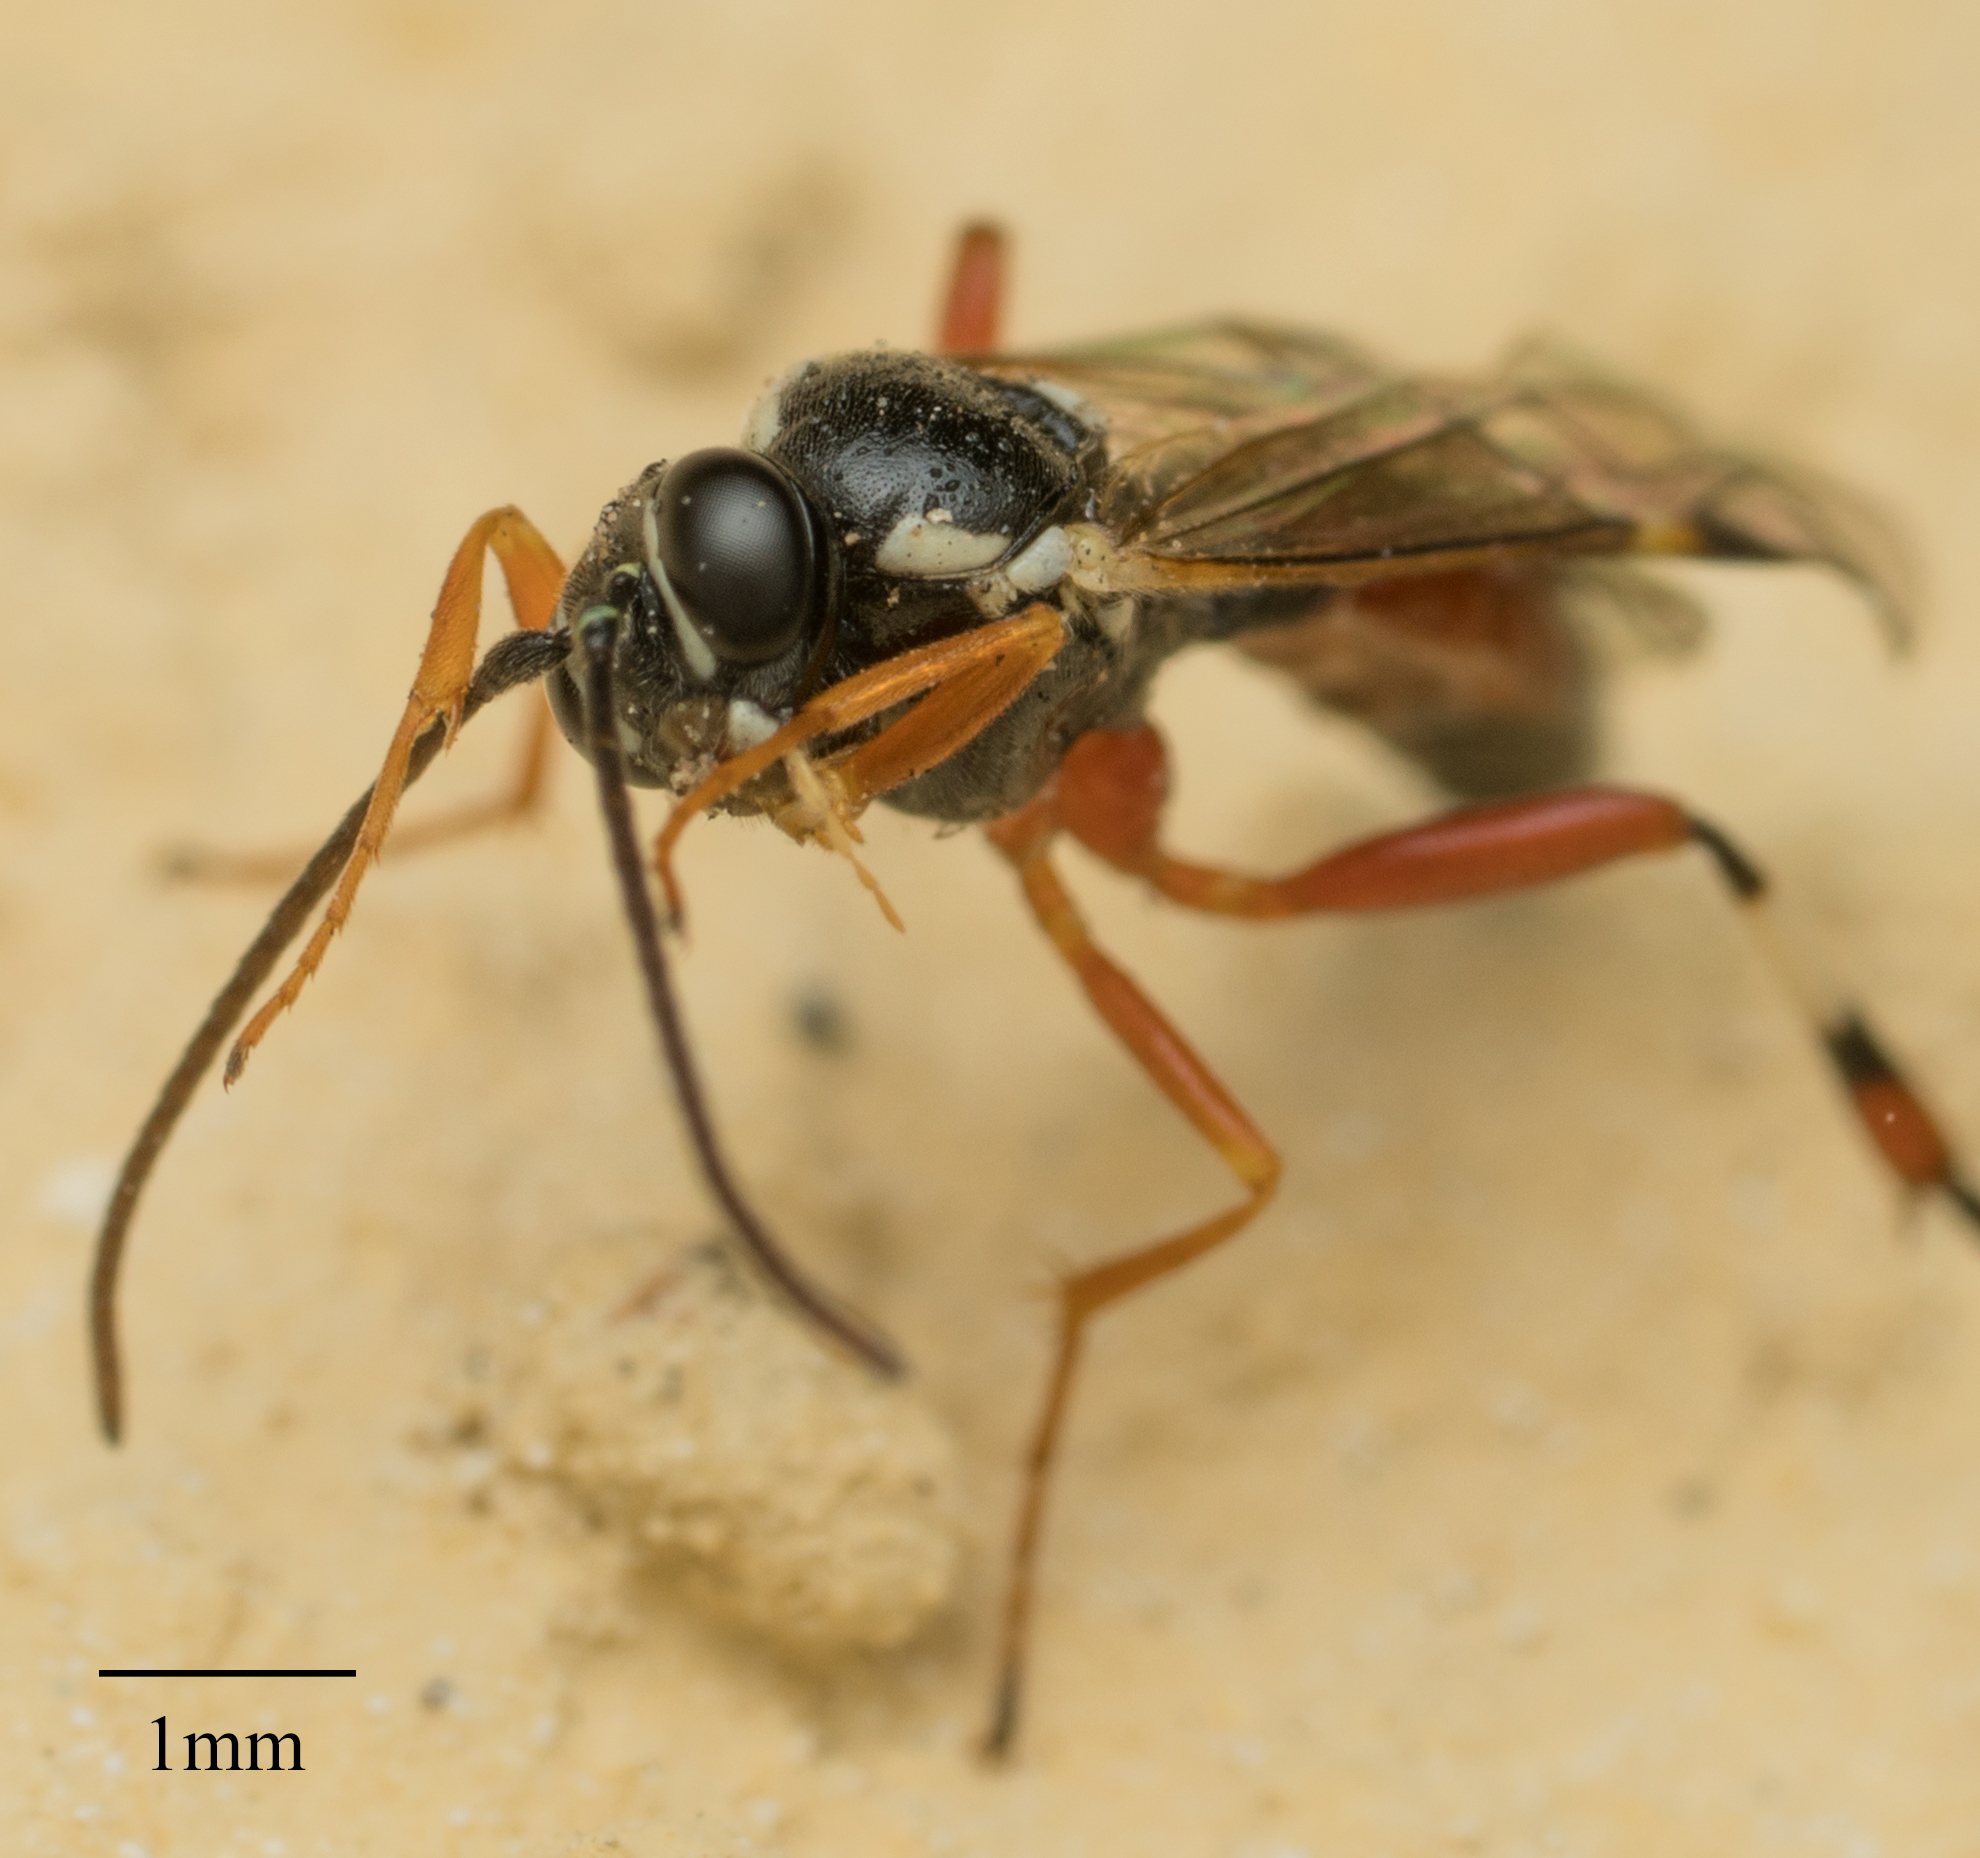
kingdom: Animalia
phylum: Arthropoda
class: Insecta
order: Hymenoptera
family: Ichneumonidae
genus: Diplazon
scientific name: Diplazon laetatorius
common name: Parasitoid wasp
